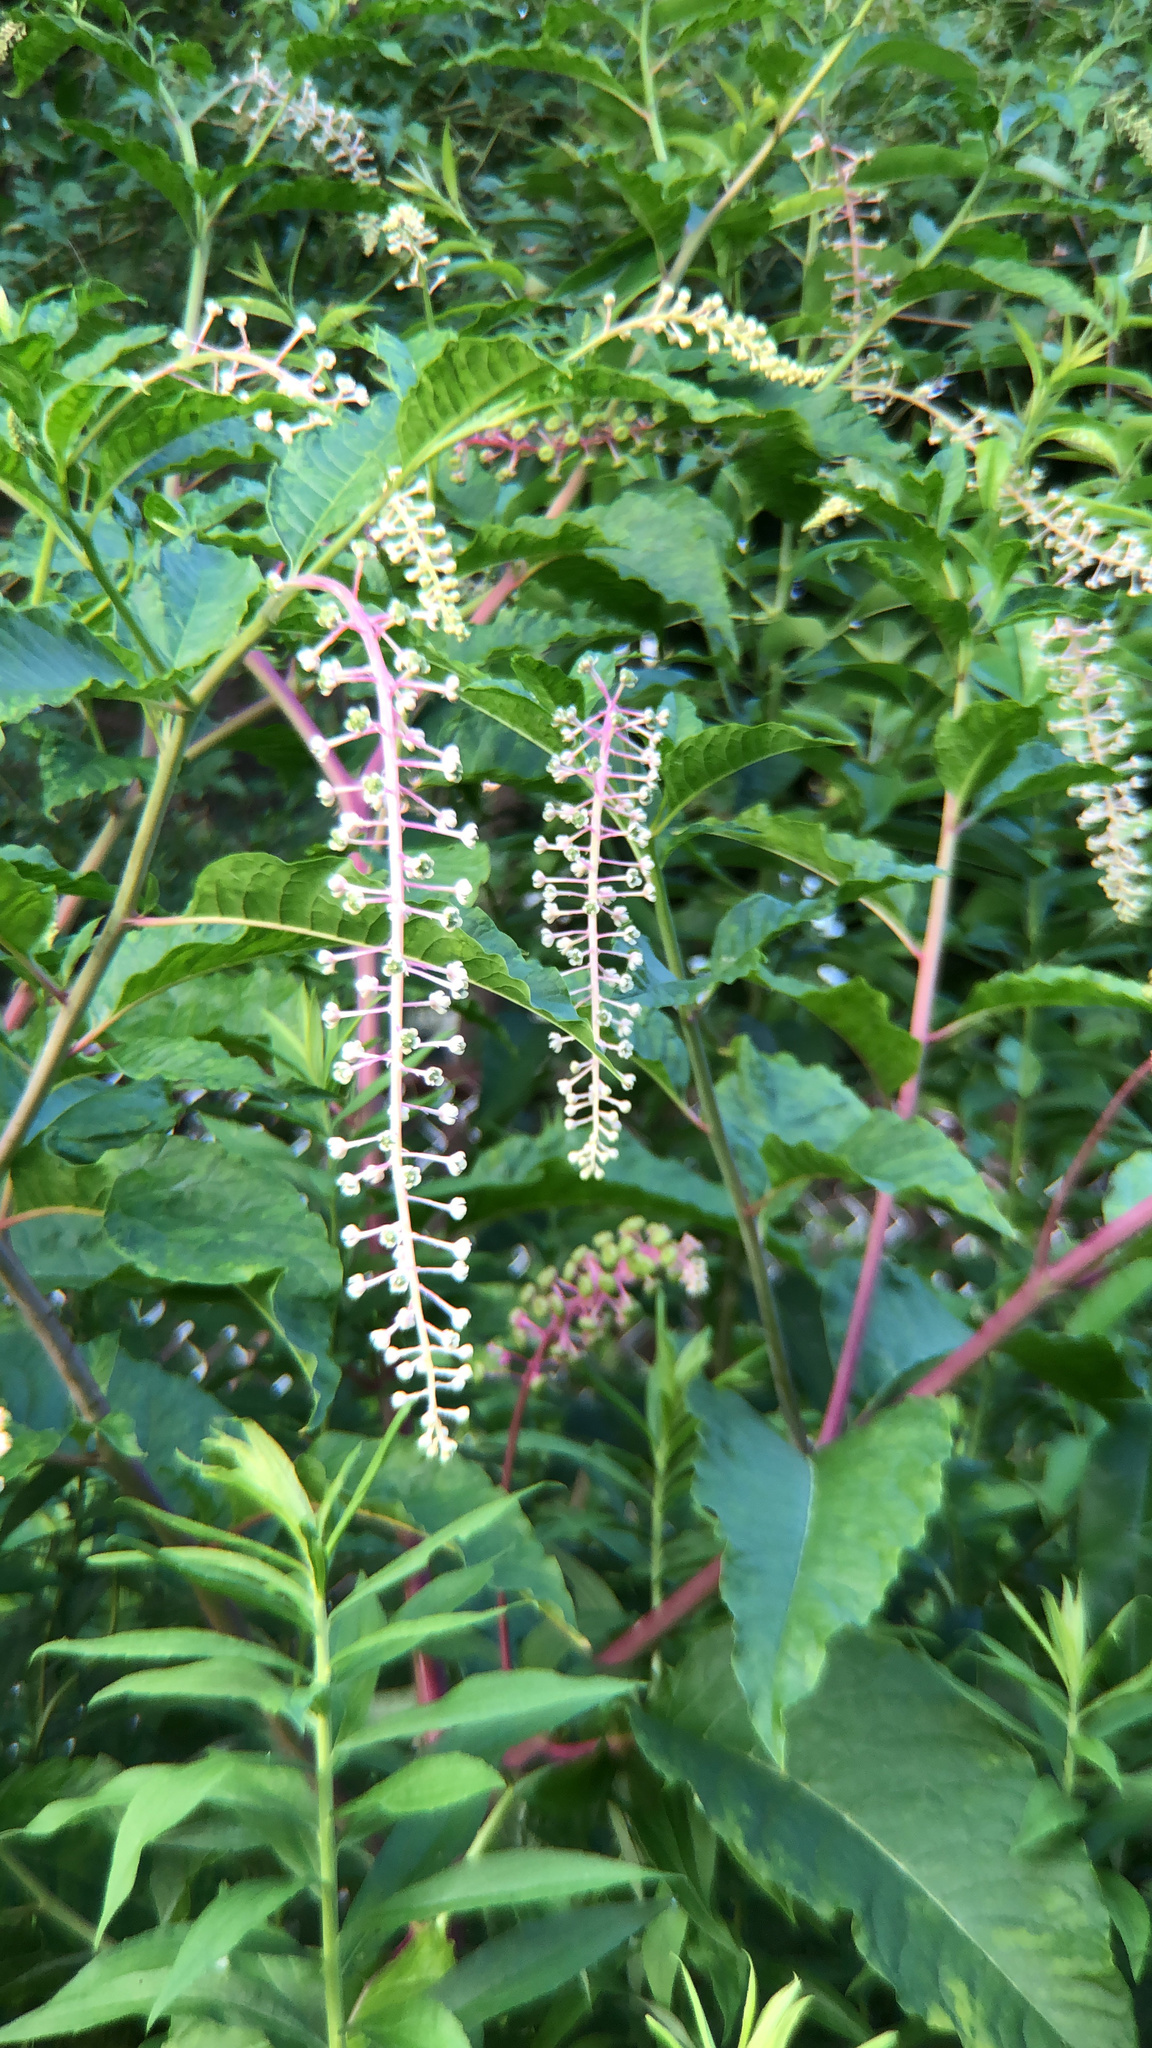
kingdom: Plantae
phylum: Tracheophyta
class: Magnoliopsida
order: Caryophyllales
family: Phytolaccaceae
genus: Phytolacca
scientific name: Phytolacca americana
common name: American pokeweed
